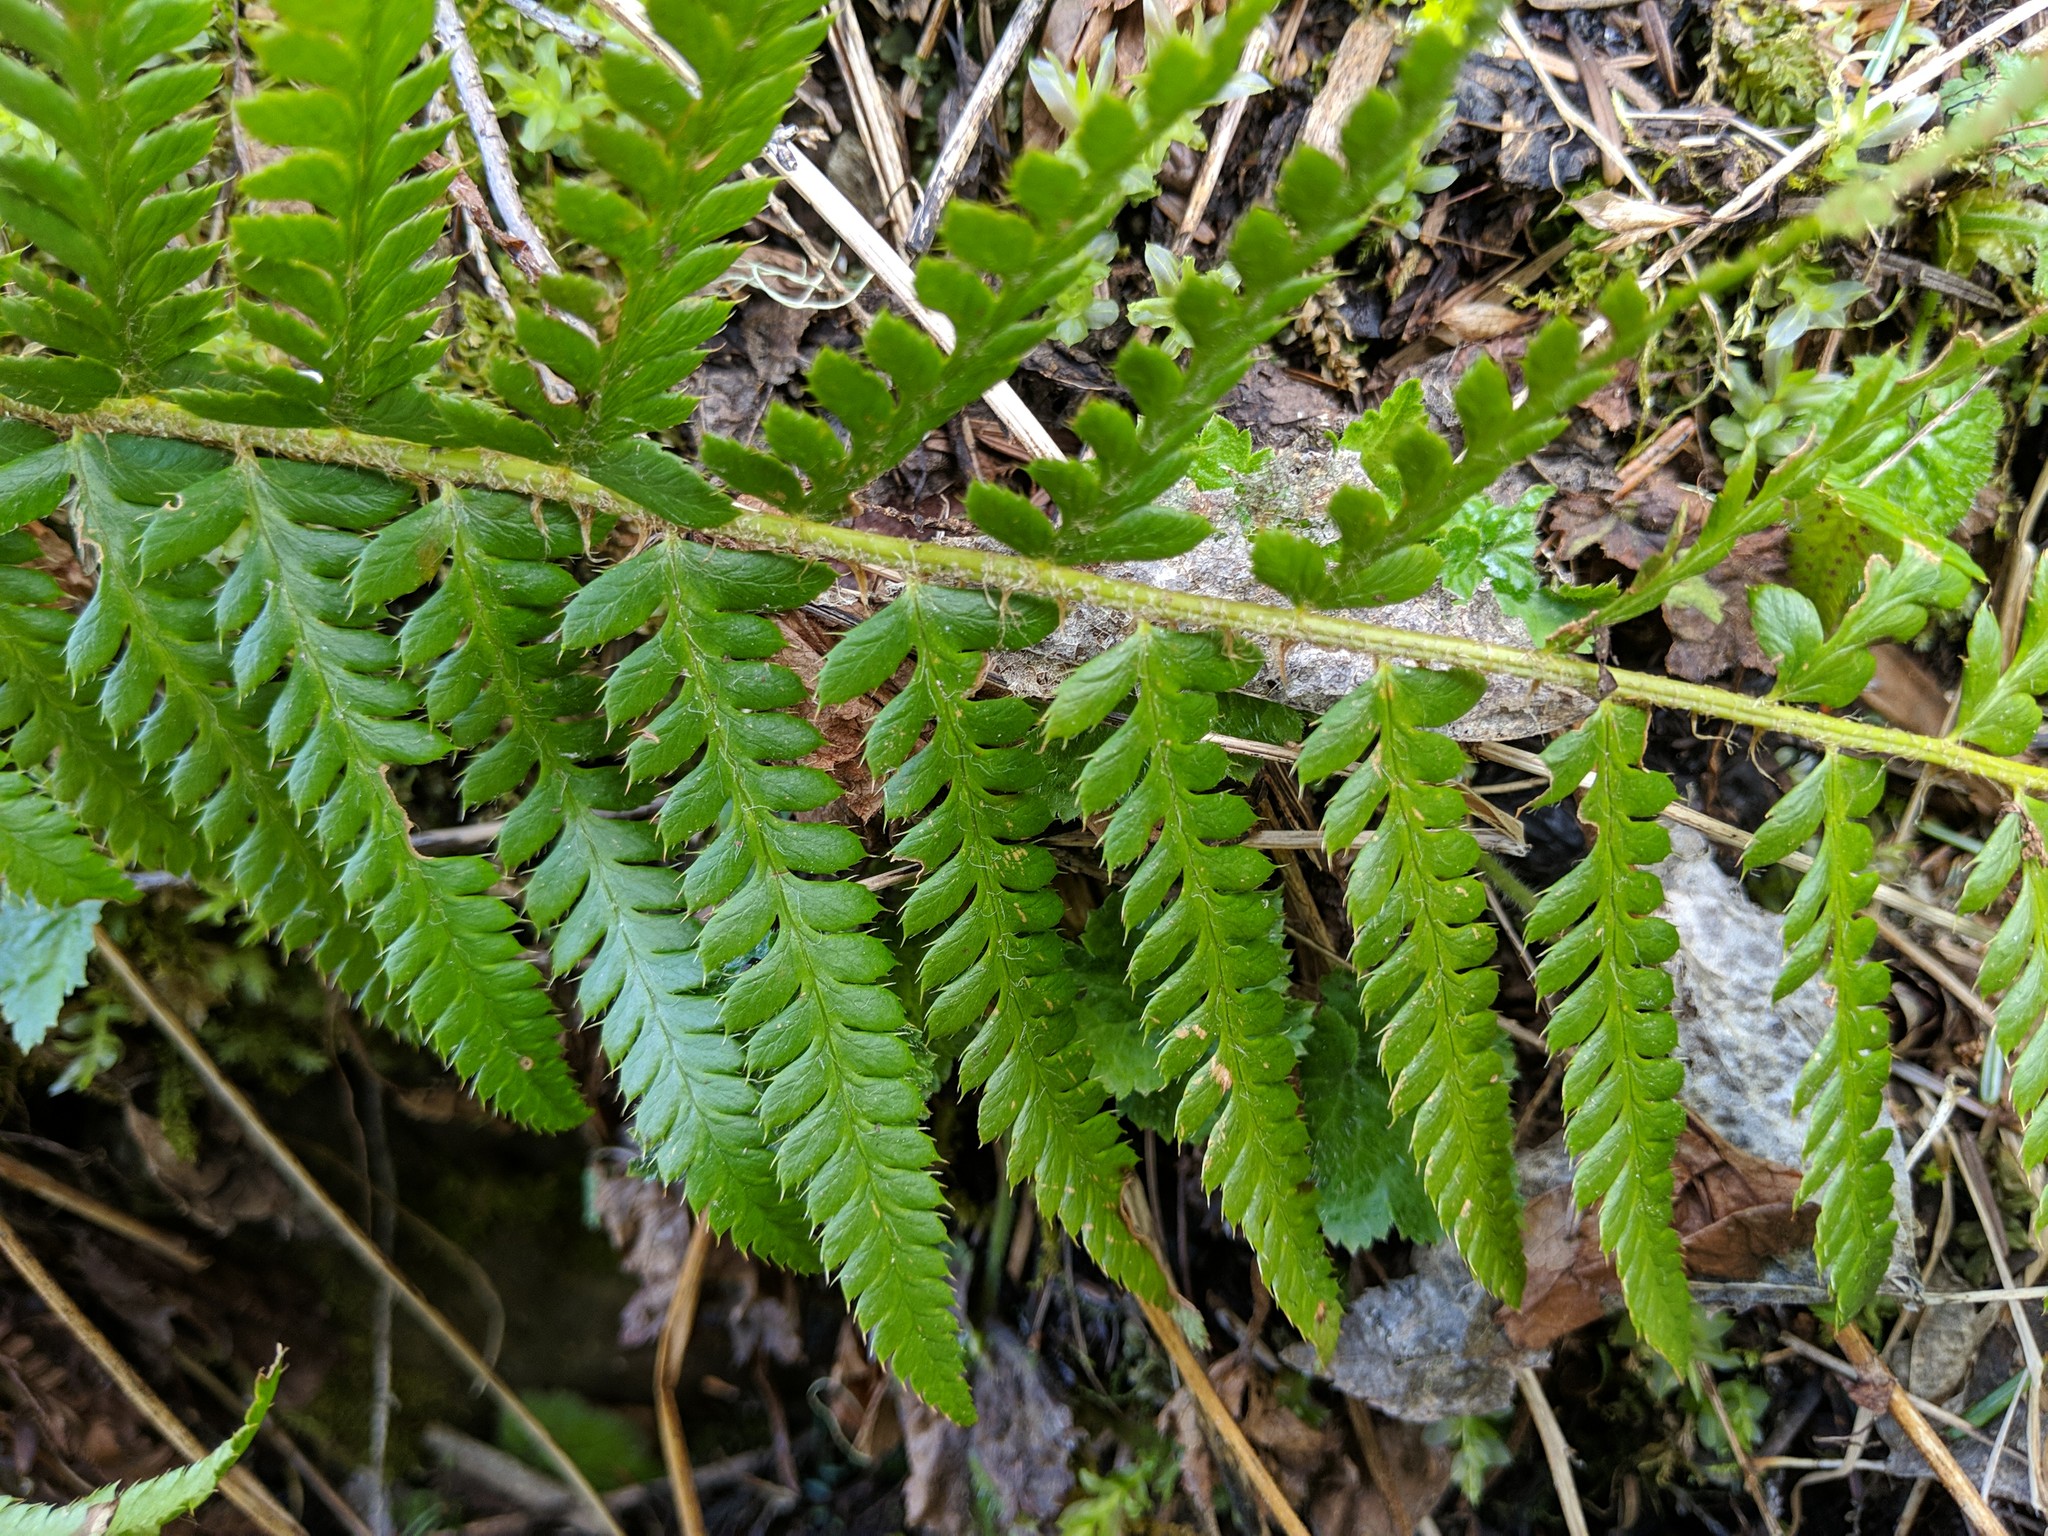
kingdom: Plantae
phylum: Tracheophyta
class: Polypodiopsida
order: Polypodiales
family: Dryopteridaceae
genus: Polystichum
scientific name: Polystichum andersonii
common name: Anderson's holly fern
